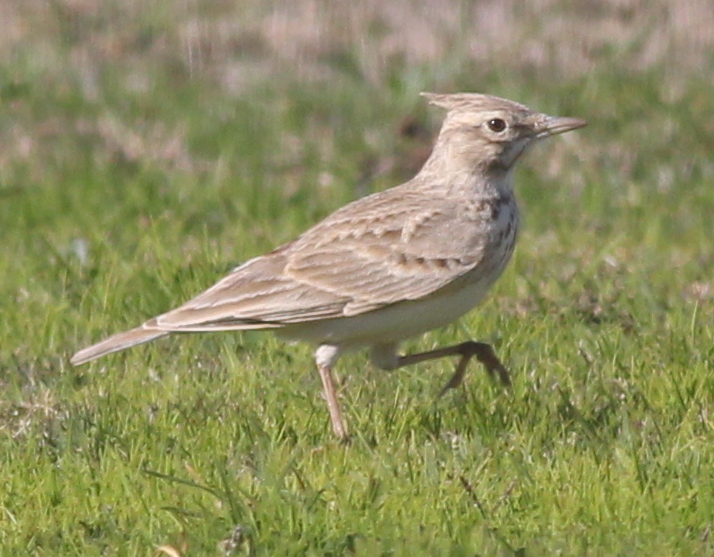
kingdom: Animalia
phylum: Chordata
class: Aves
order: Passeriformes
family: Alaudidae
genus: Galerida
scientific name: Galerida cristata
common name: Crested lark
